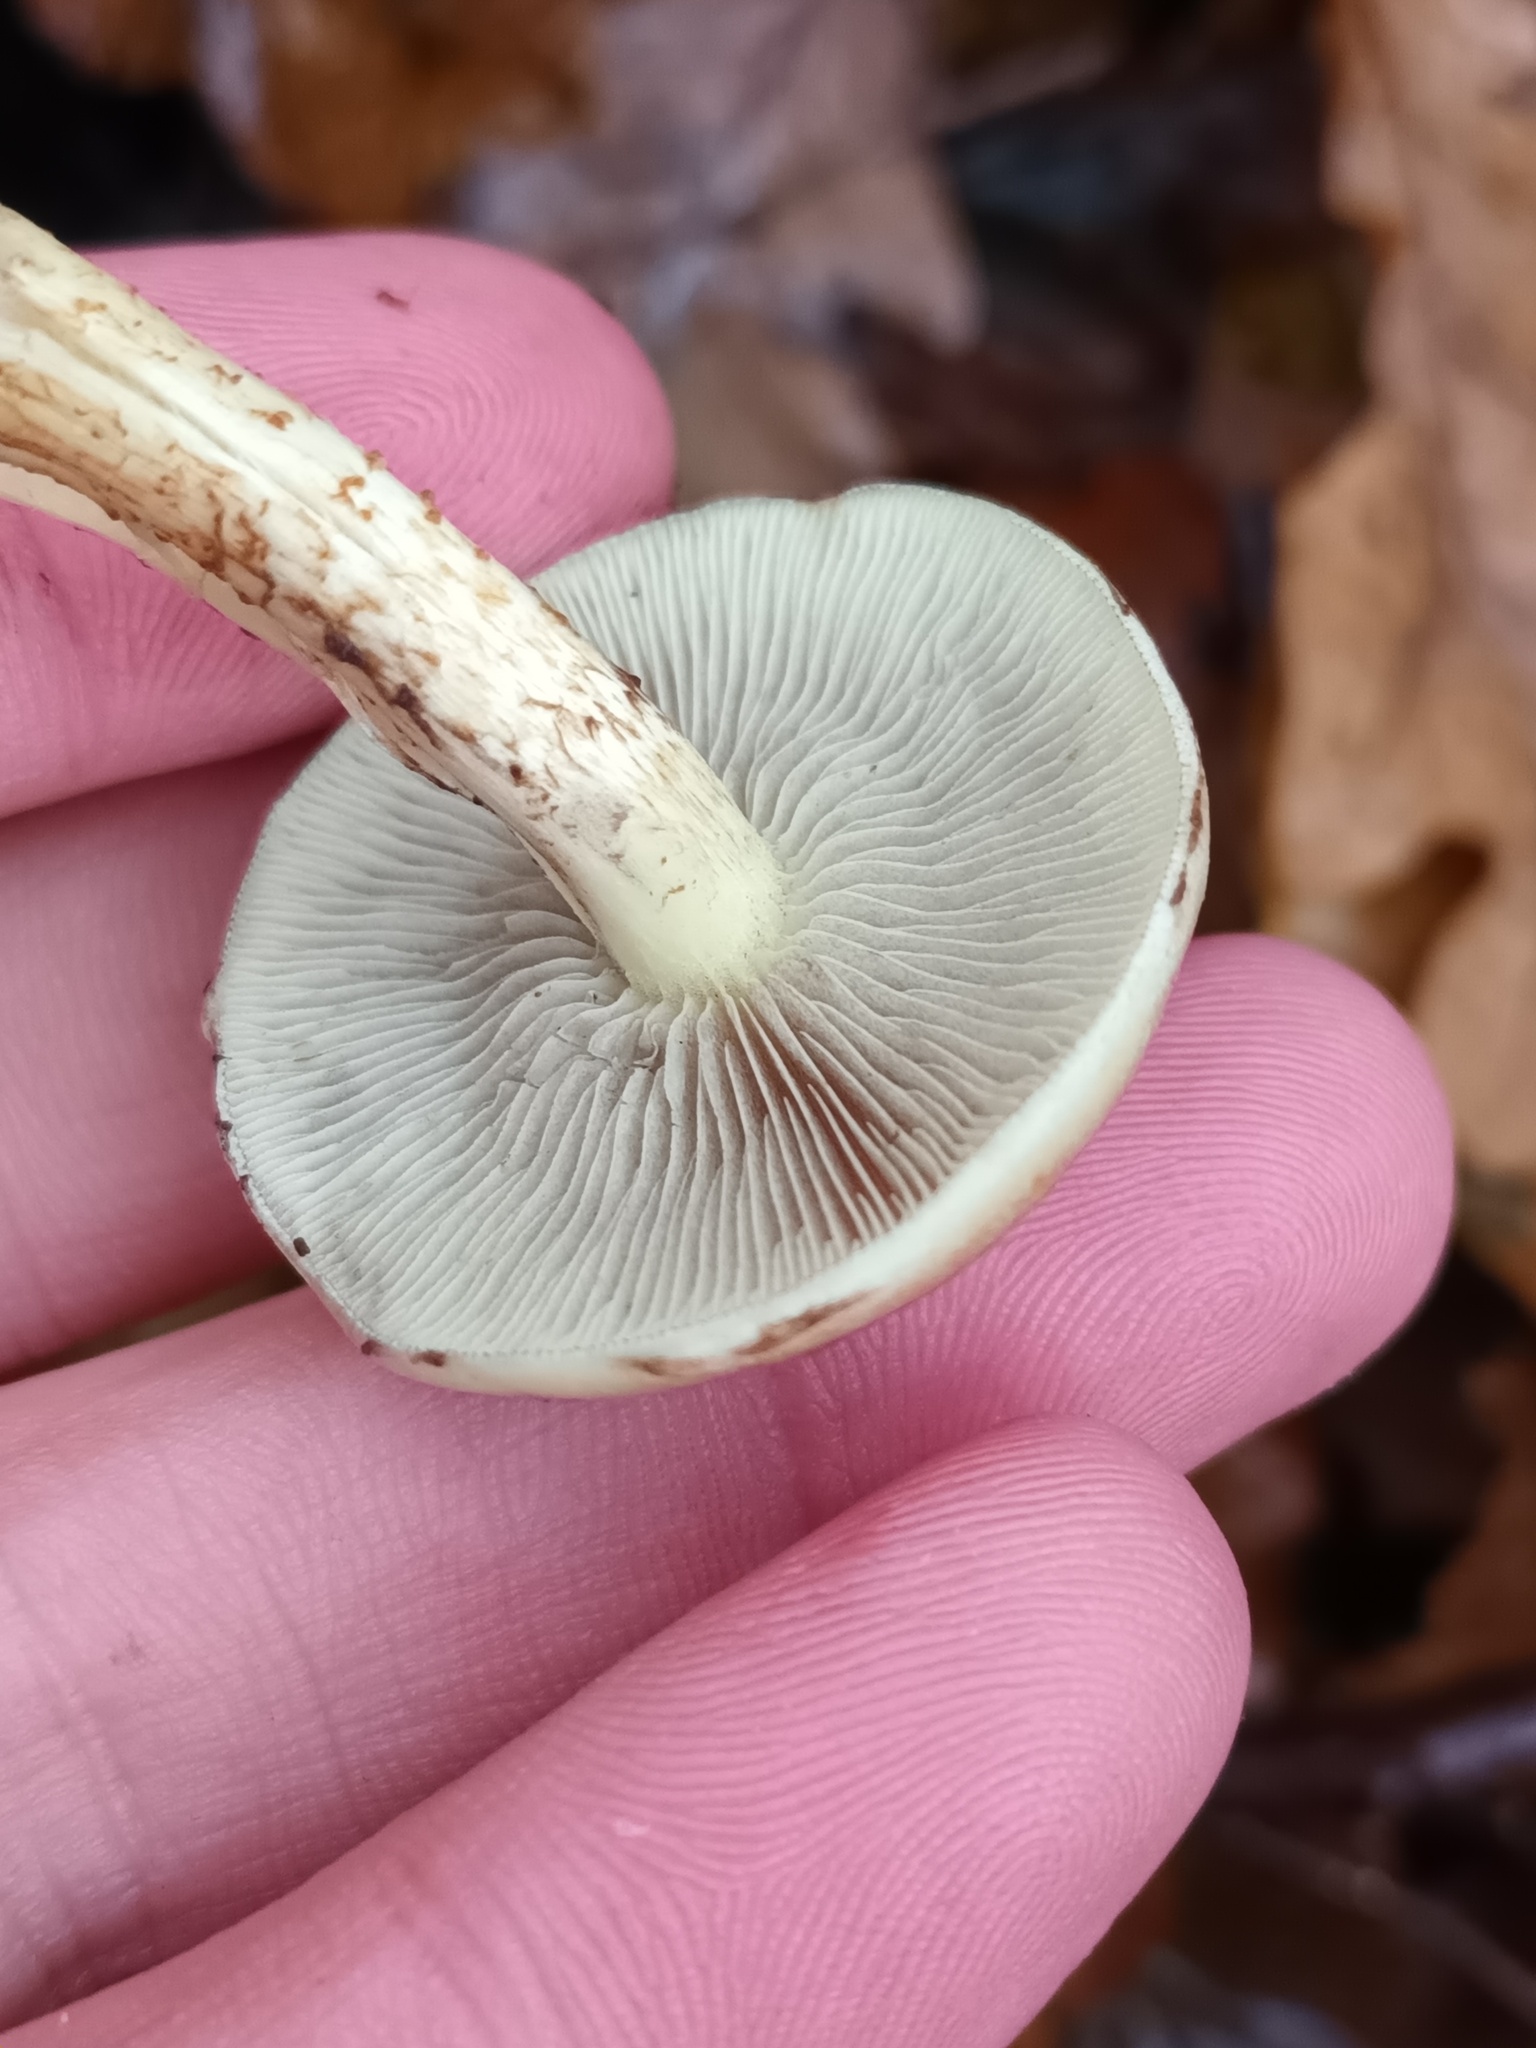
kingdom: Fungi
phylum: Basidiomycota
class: Agaricomycetes
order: Agaricales
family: Strophariaceae
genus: Hypholoma
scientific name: Hypholoma fasciculare
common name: Sulphur tuft
